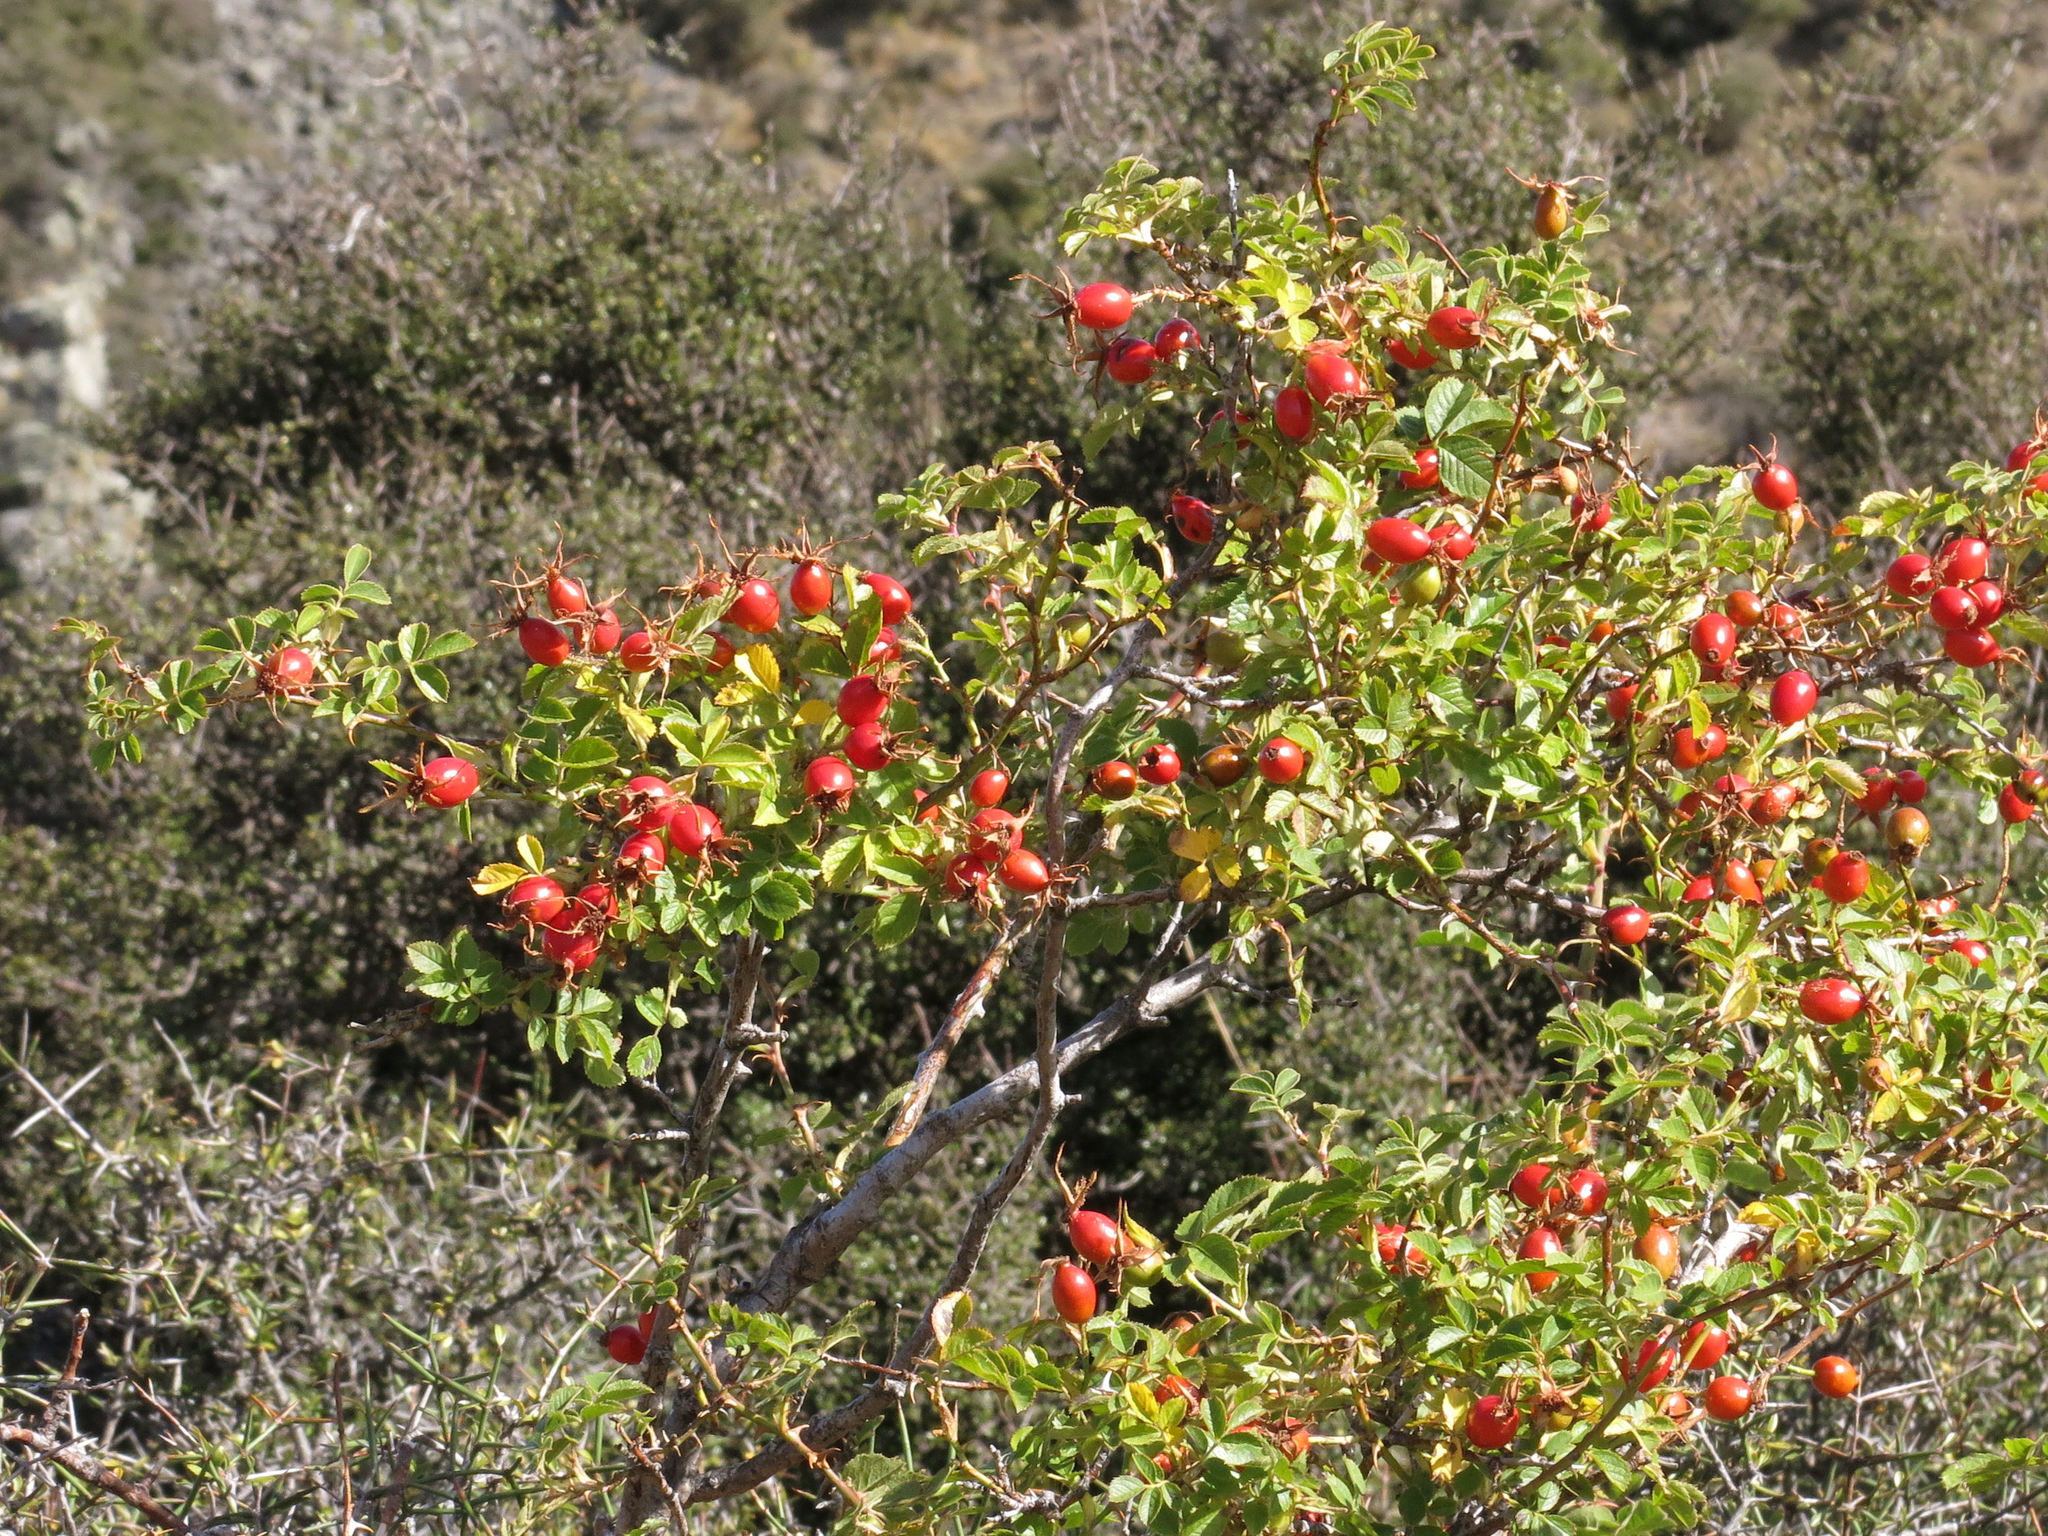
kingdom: Plantae
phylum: Tracheophyta
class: Magnoliopsida
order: Rosales
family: Rosaceae
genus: Rosa
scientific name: Rosa rubiginosa
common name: Sweet-briar
